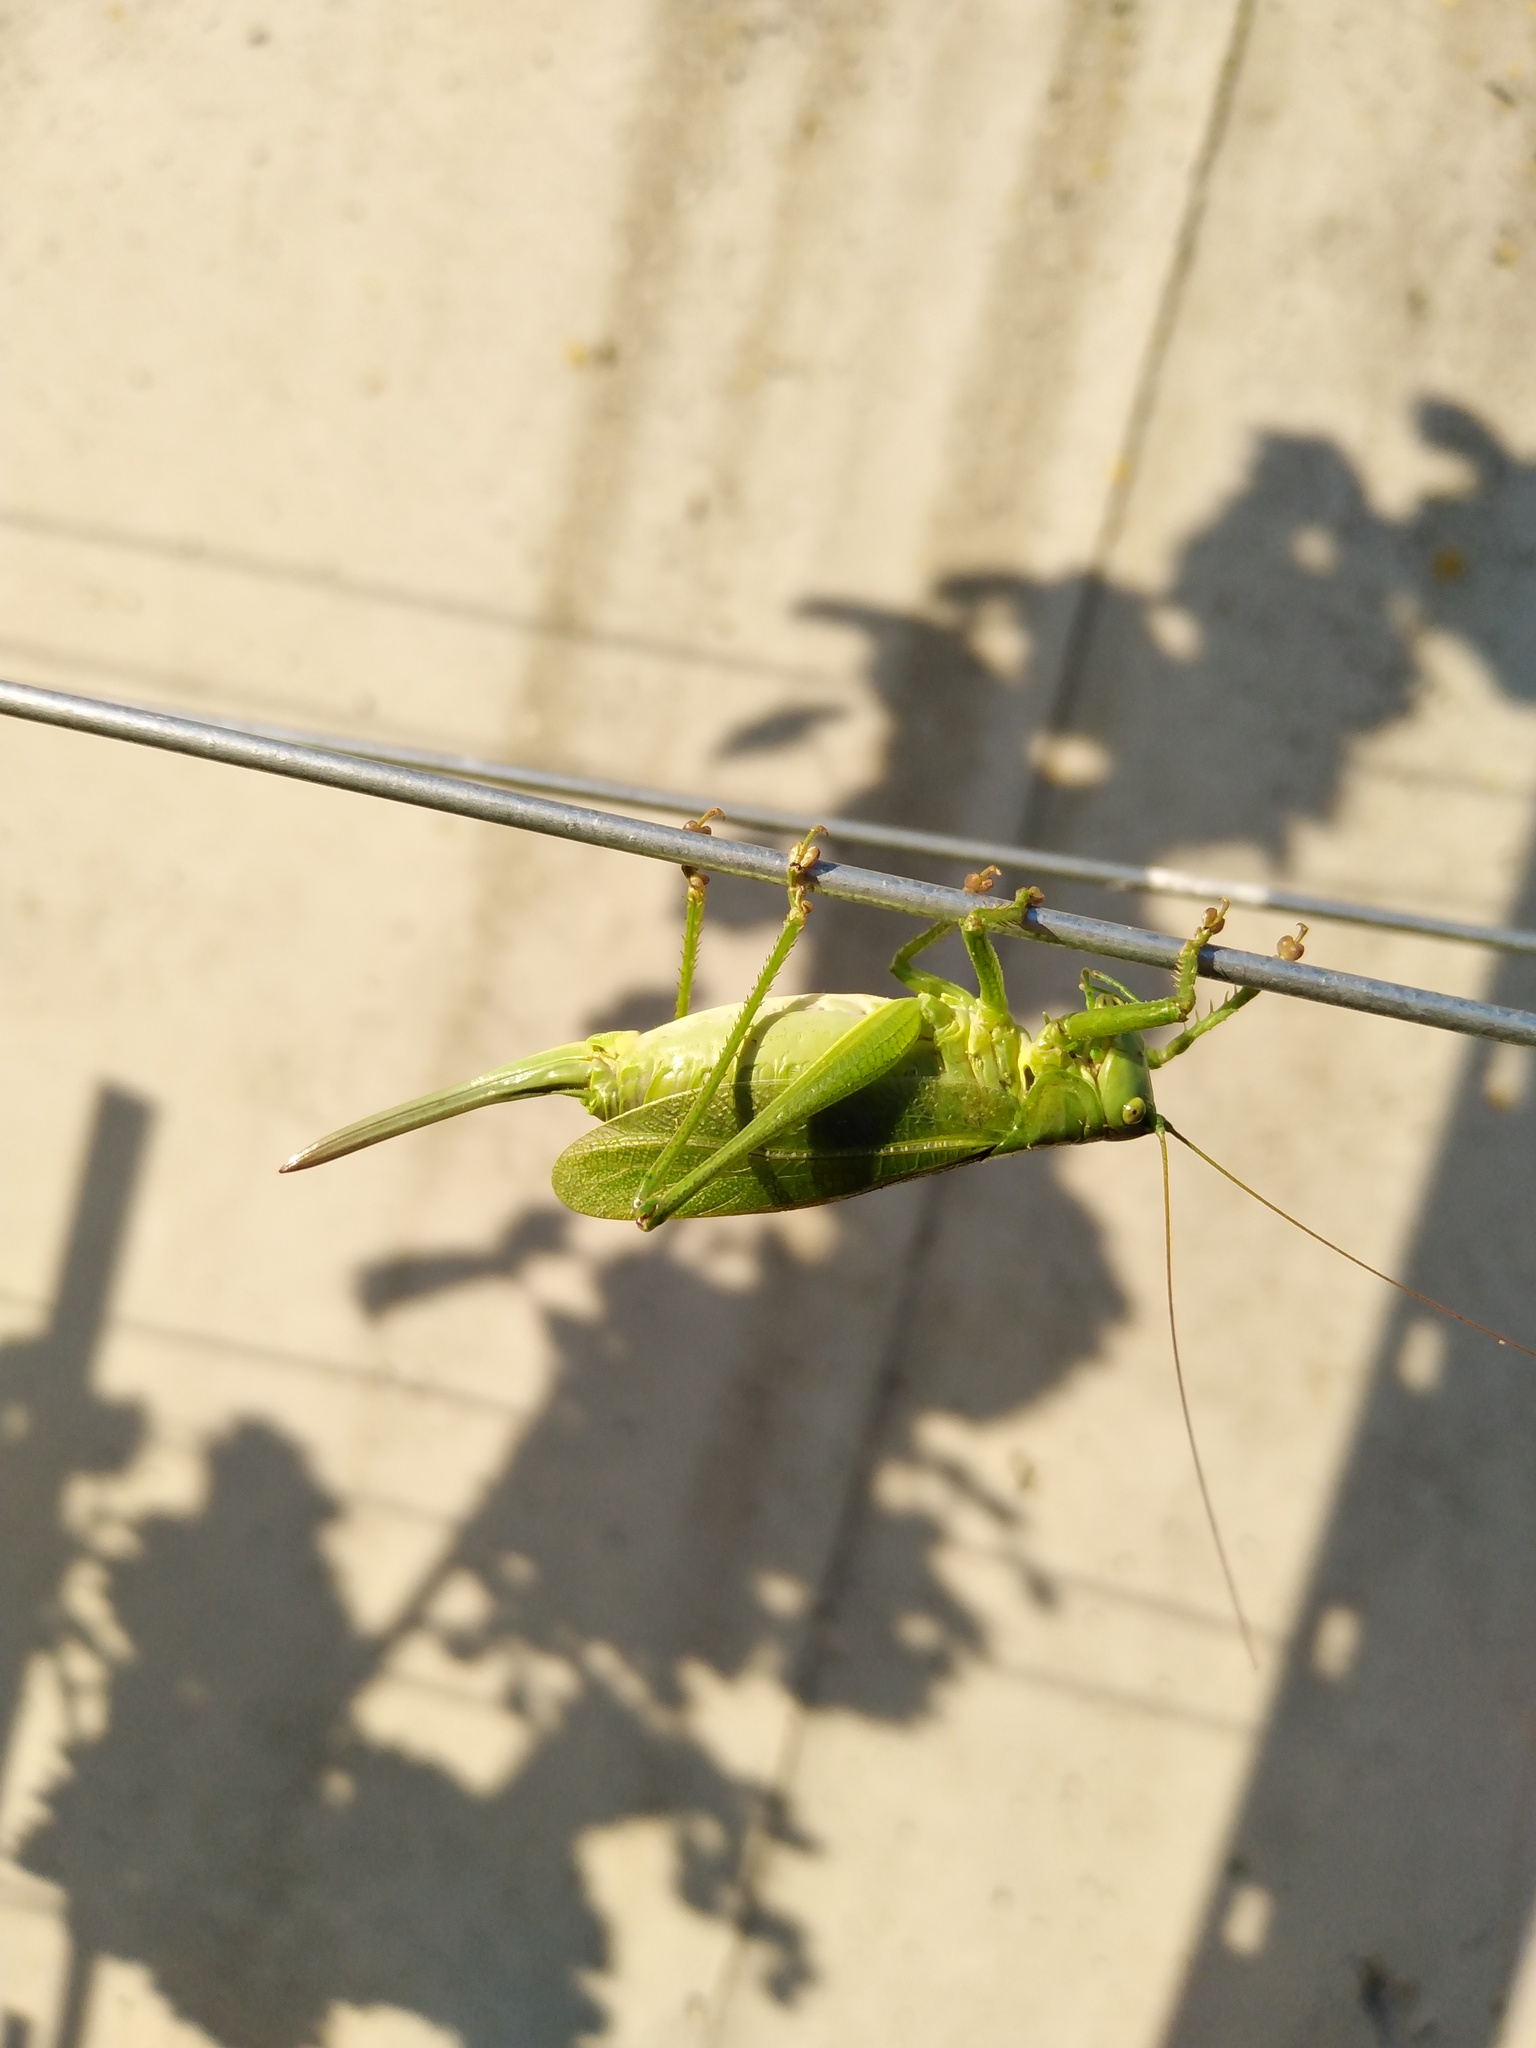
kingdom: Animalia
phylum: Arthropoda
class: Insecta
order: Orthoptera
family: Tettigoniidae
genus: Tettigonia
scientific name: Tettigonia cantans
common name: Upland green bush-cricket
